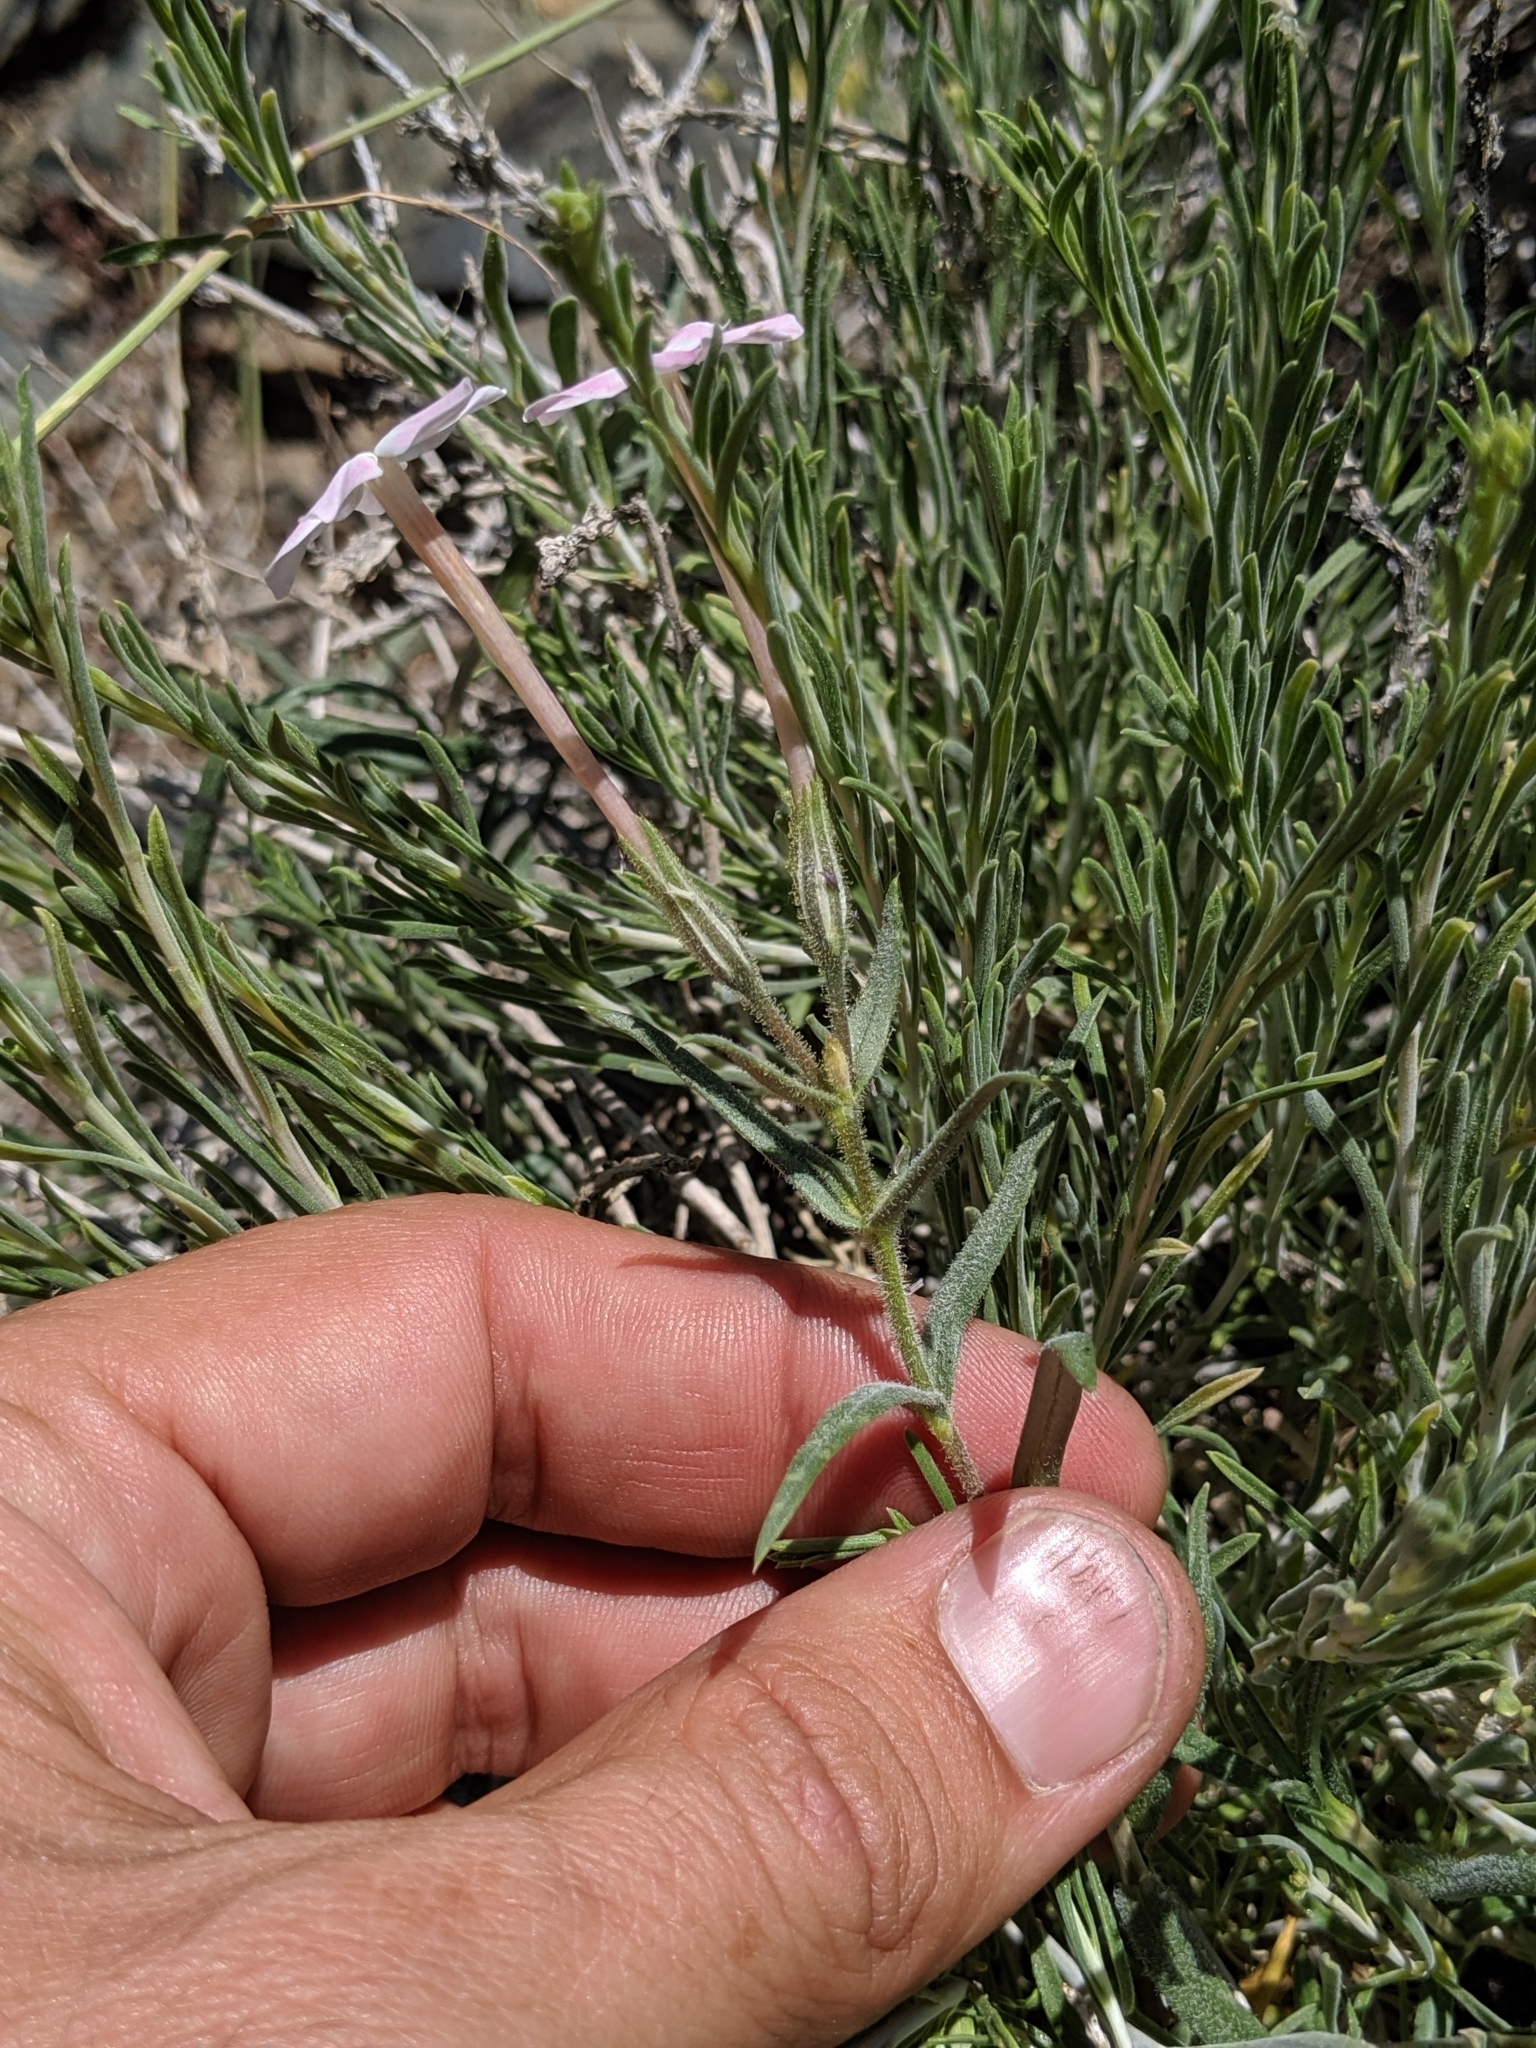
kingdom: Plantae
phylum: Tracheophyta
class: Magnoliopsida
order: Ericales
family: Polemoniaceae
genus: Phlox
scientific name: Phlox longifolia
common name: Longleaf phlox
